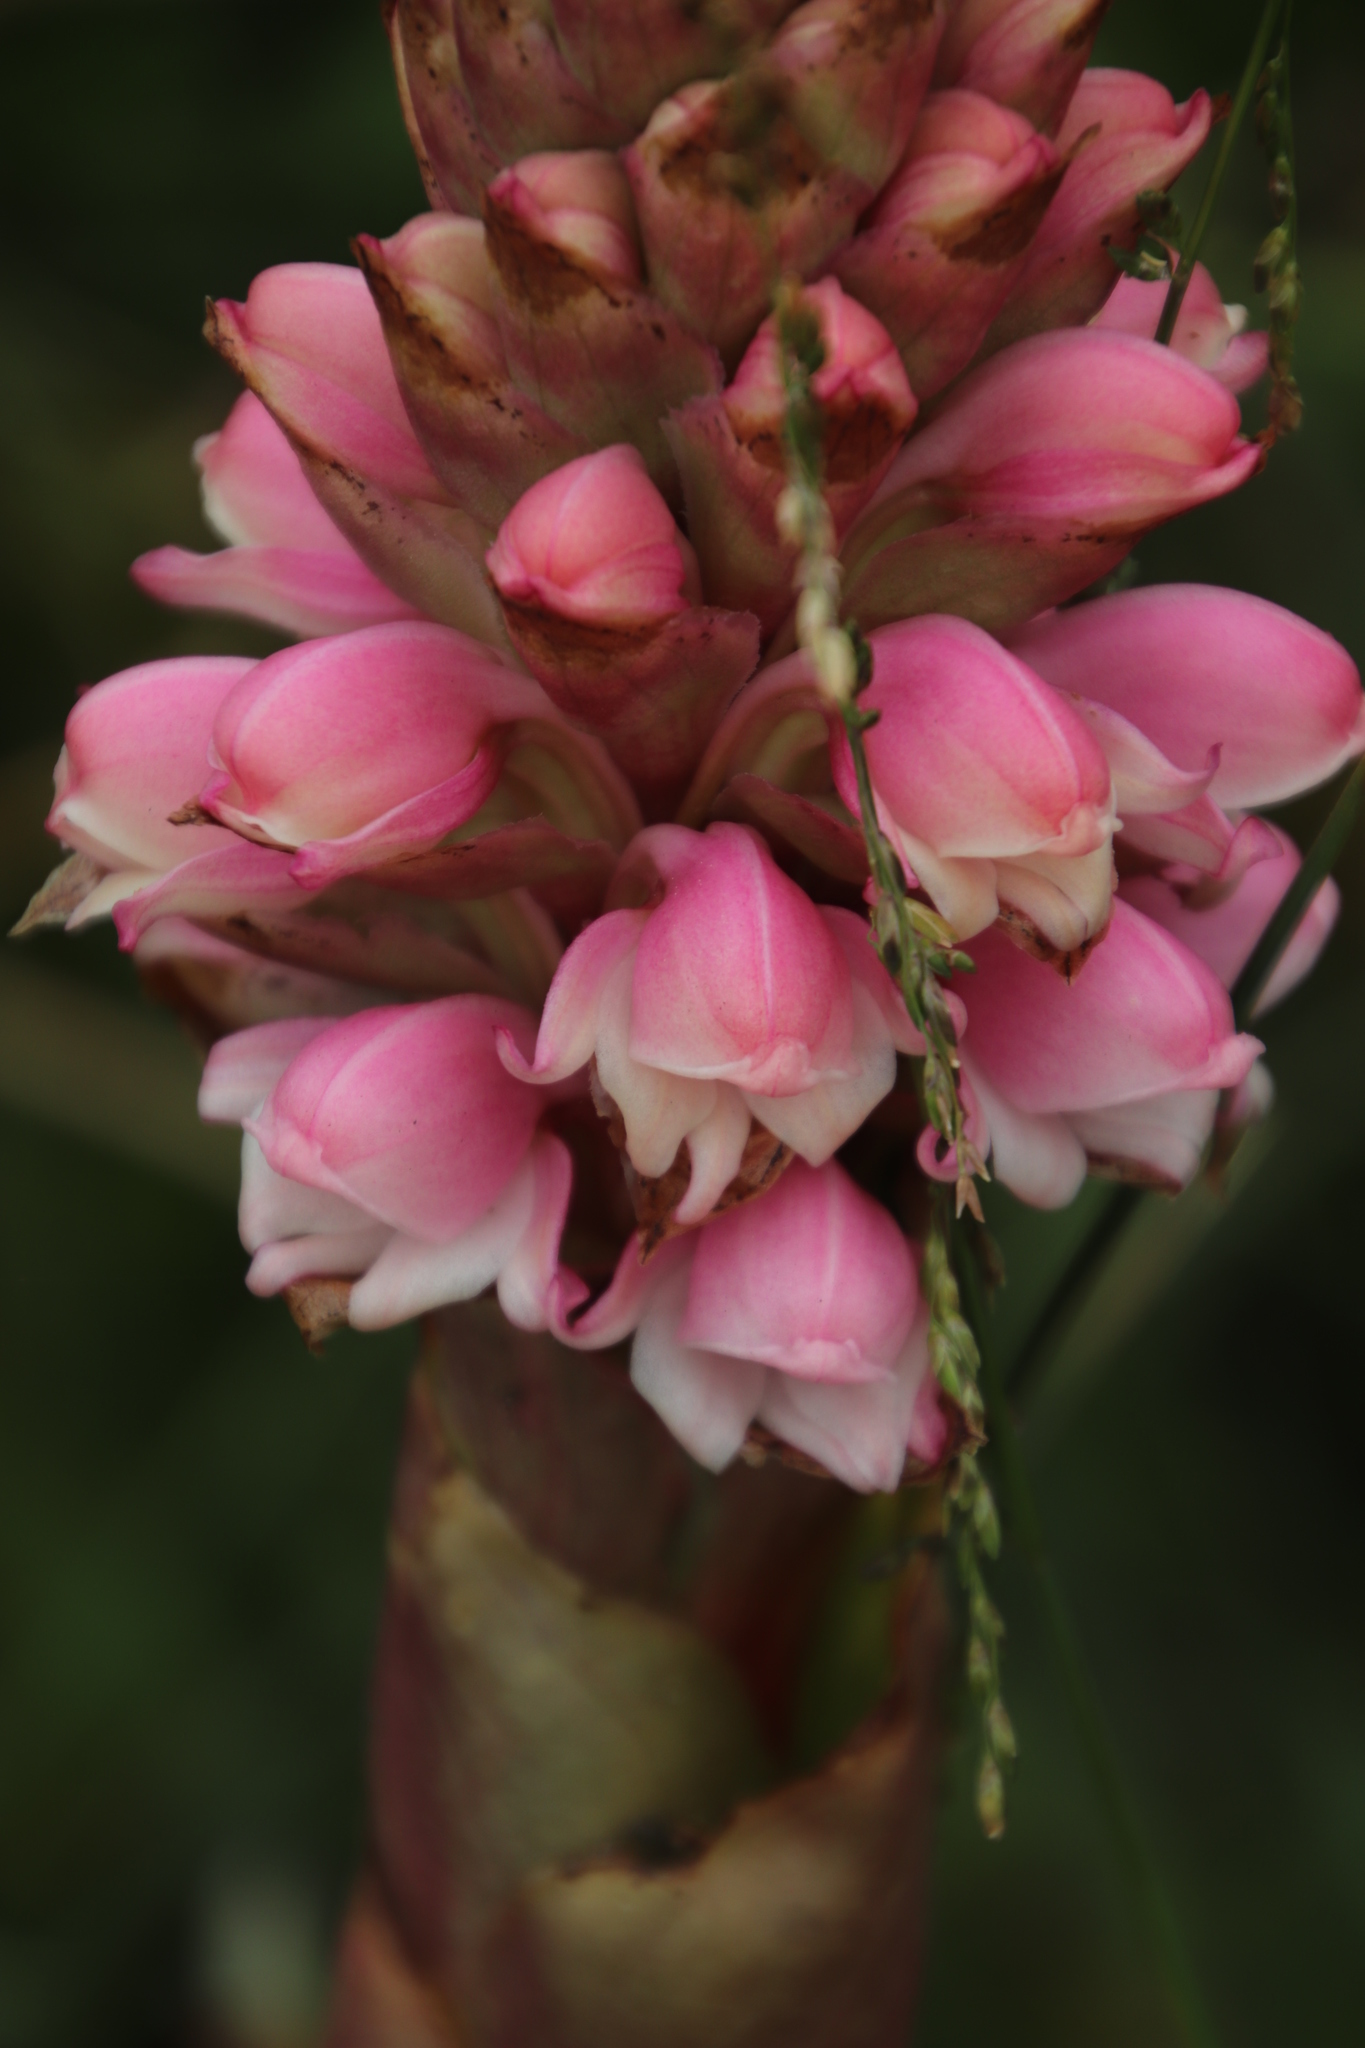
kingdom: Plantae
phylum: Tracheophyta
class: Liliopsida
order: Asparagales
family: Orchidaceae
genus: Satyrium
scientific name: Satyrium carneum
